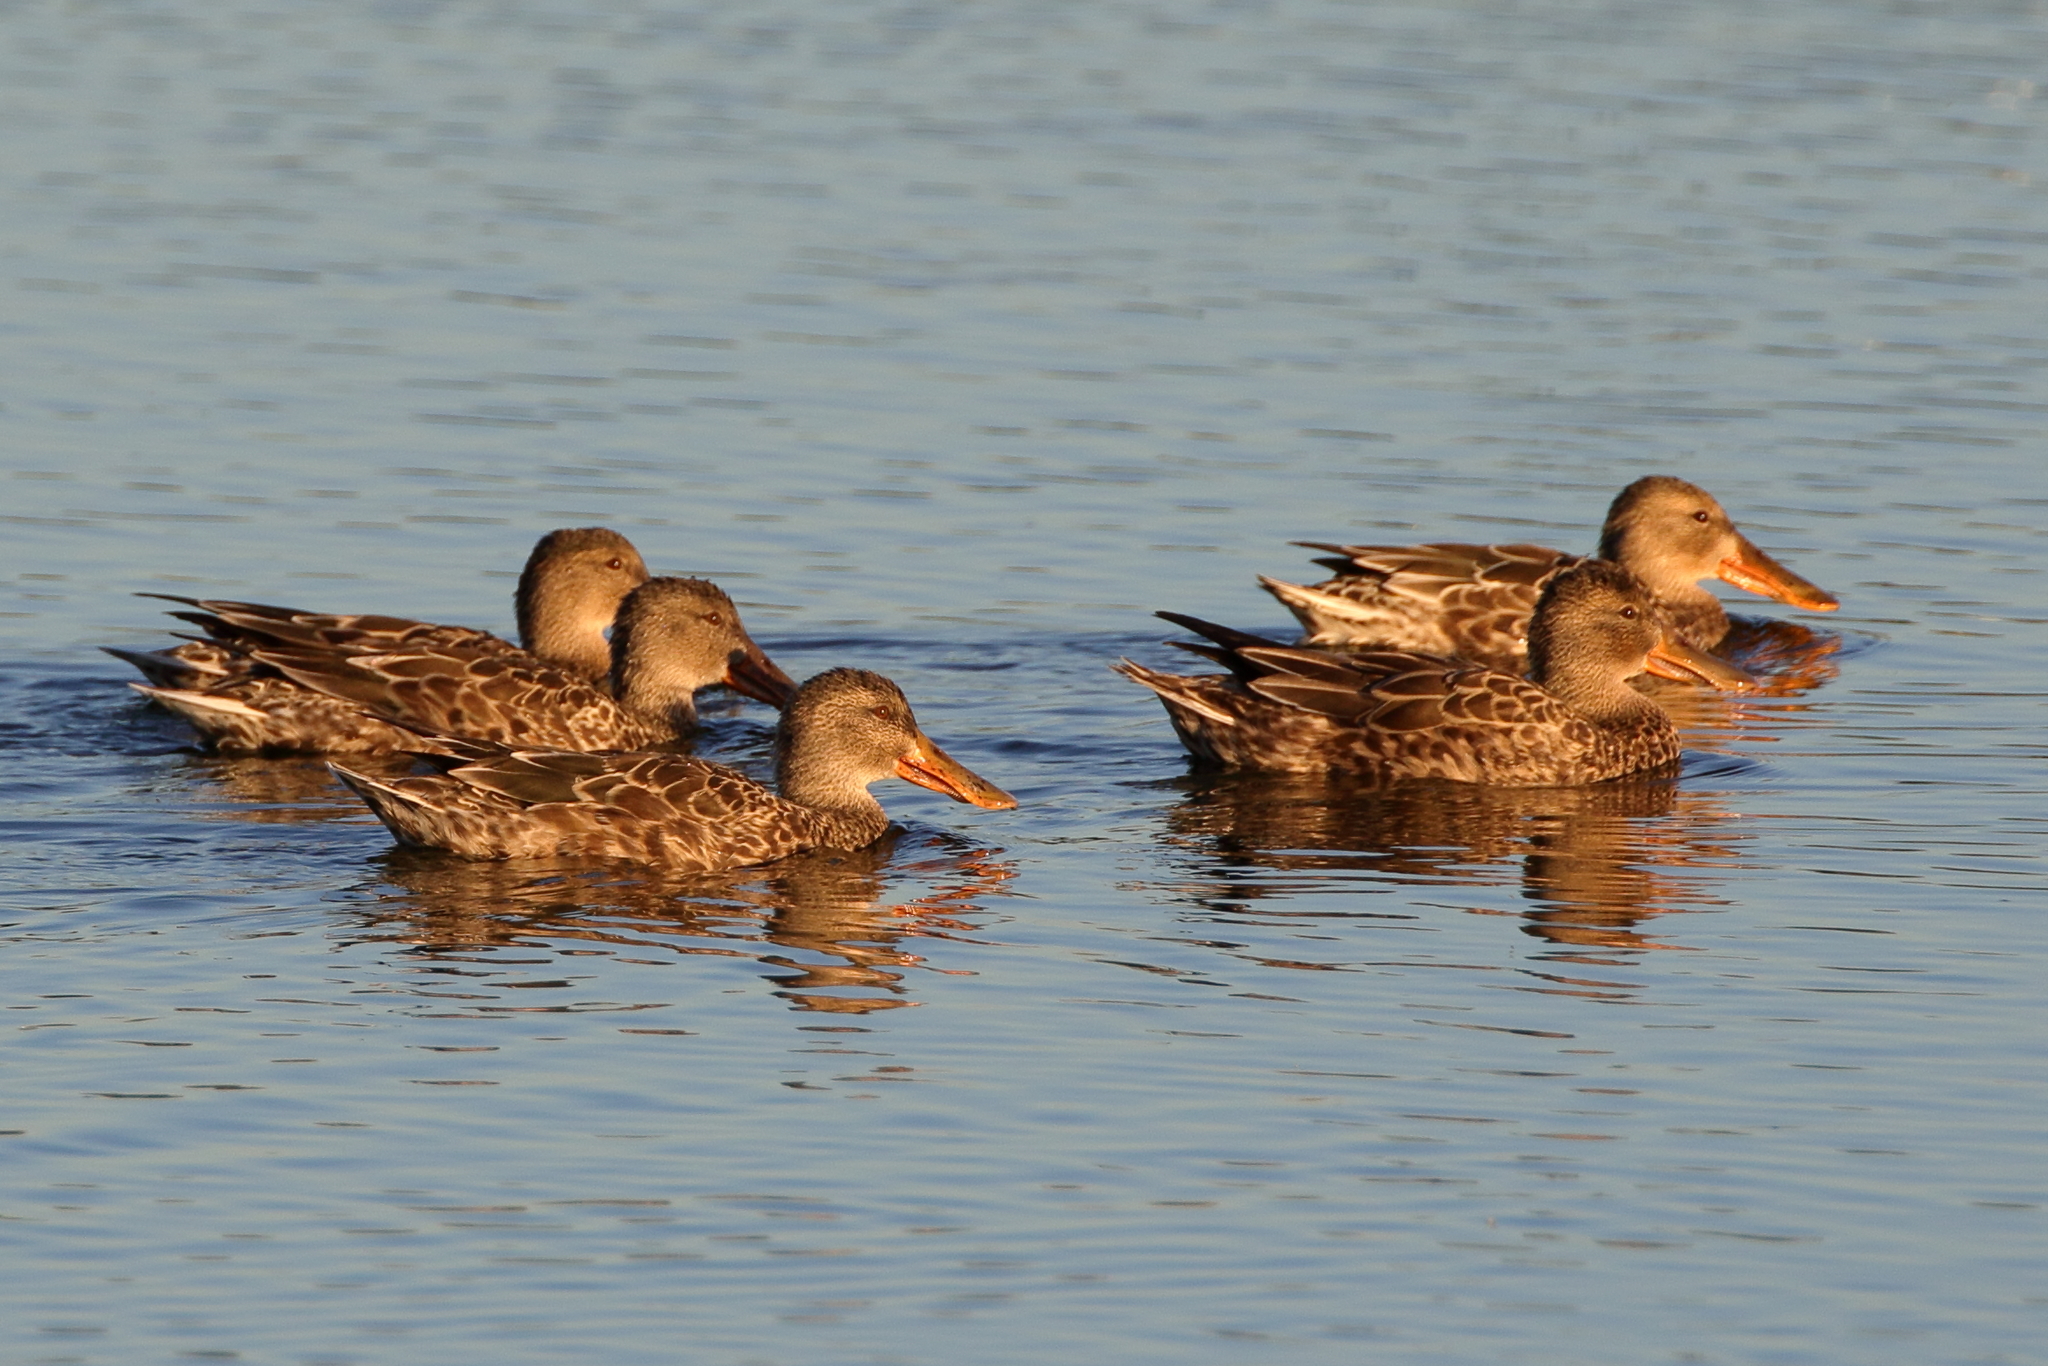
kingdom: Animalia
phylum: Chordata
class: Aves
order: Anseriformes
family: Anatidae
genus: Spatula
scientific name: Spatula clypeata
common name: Northern shoveler
